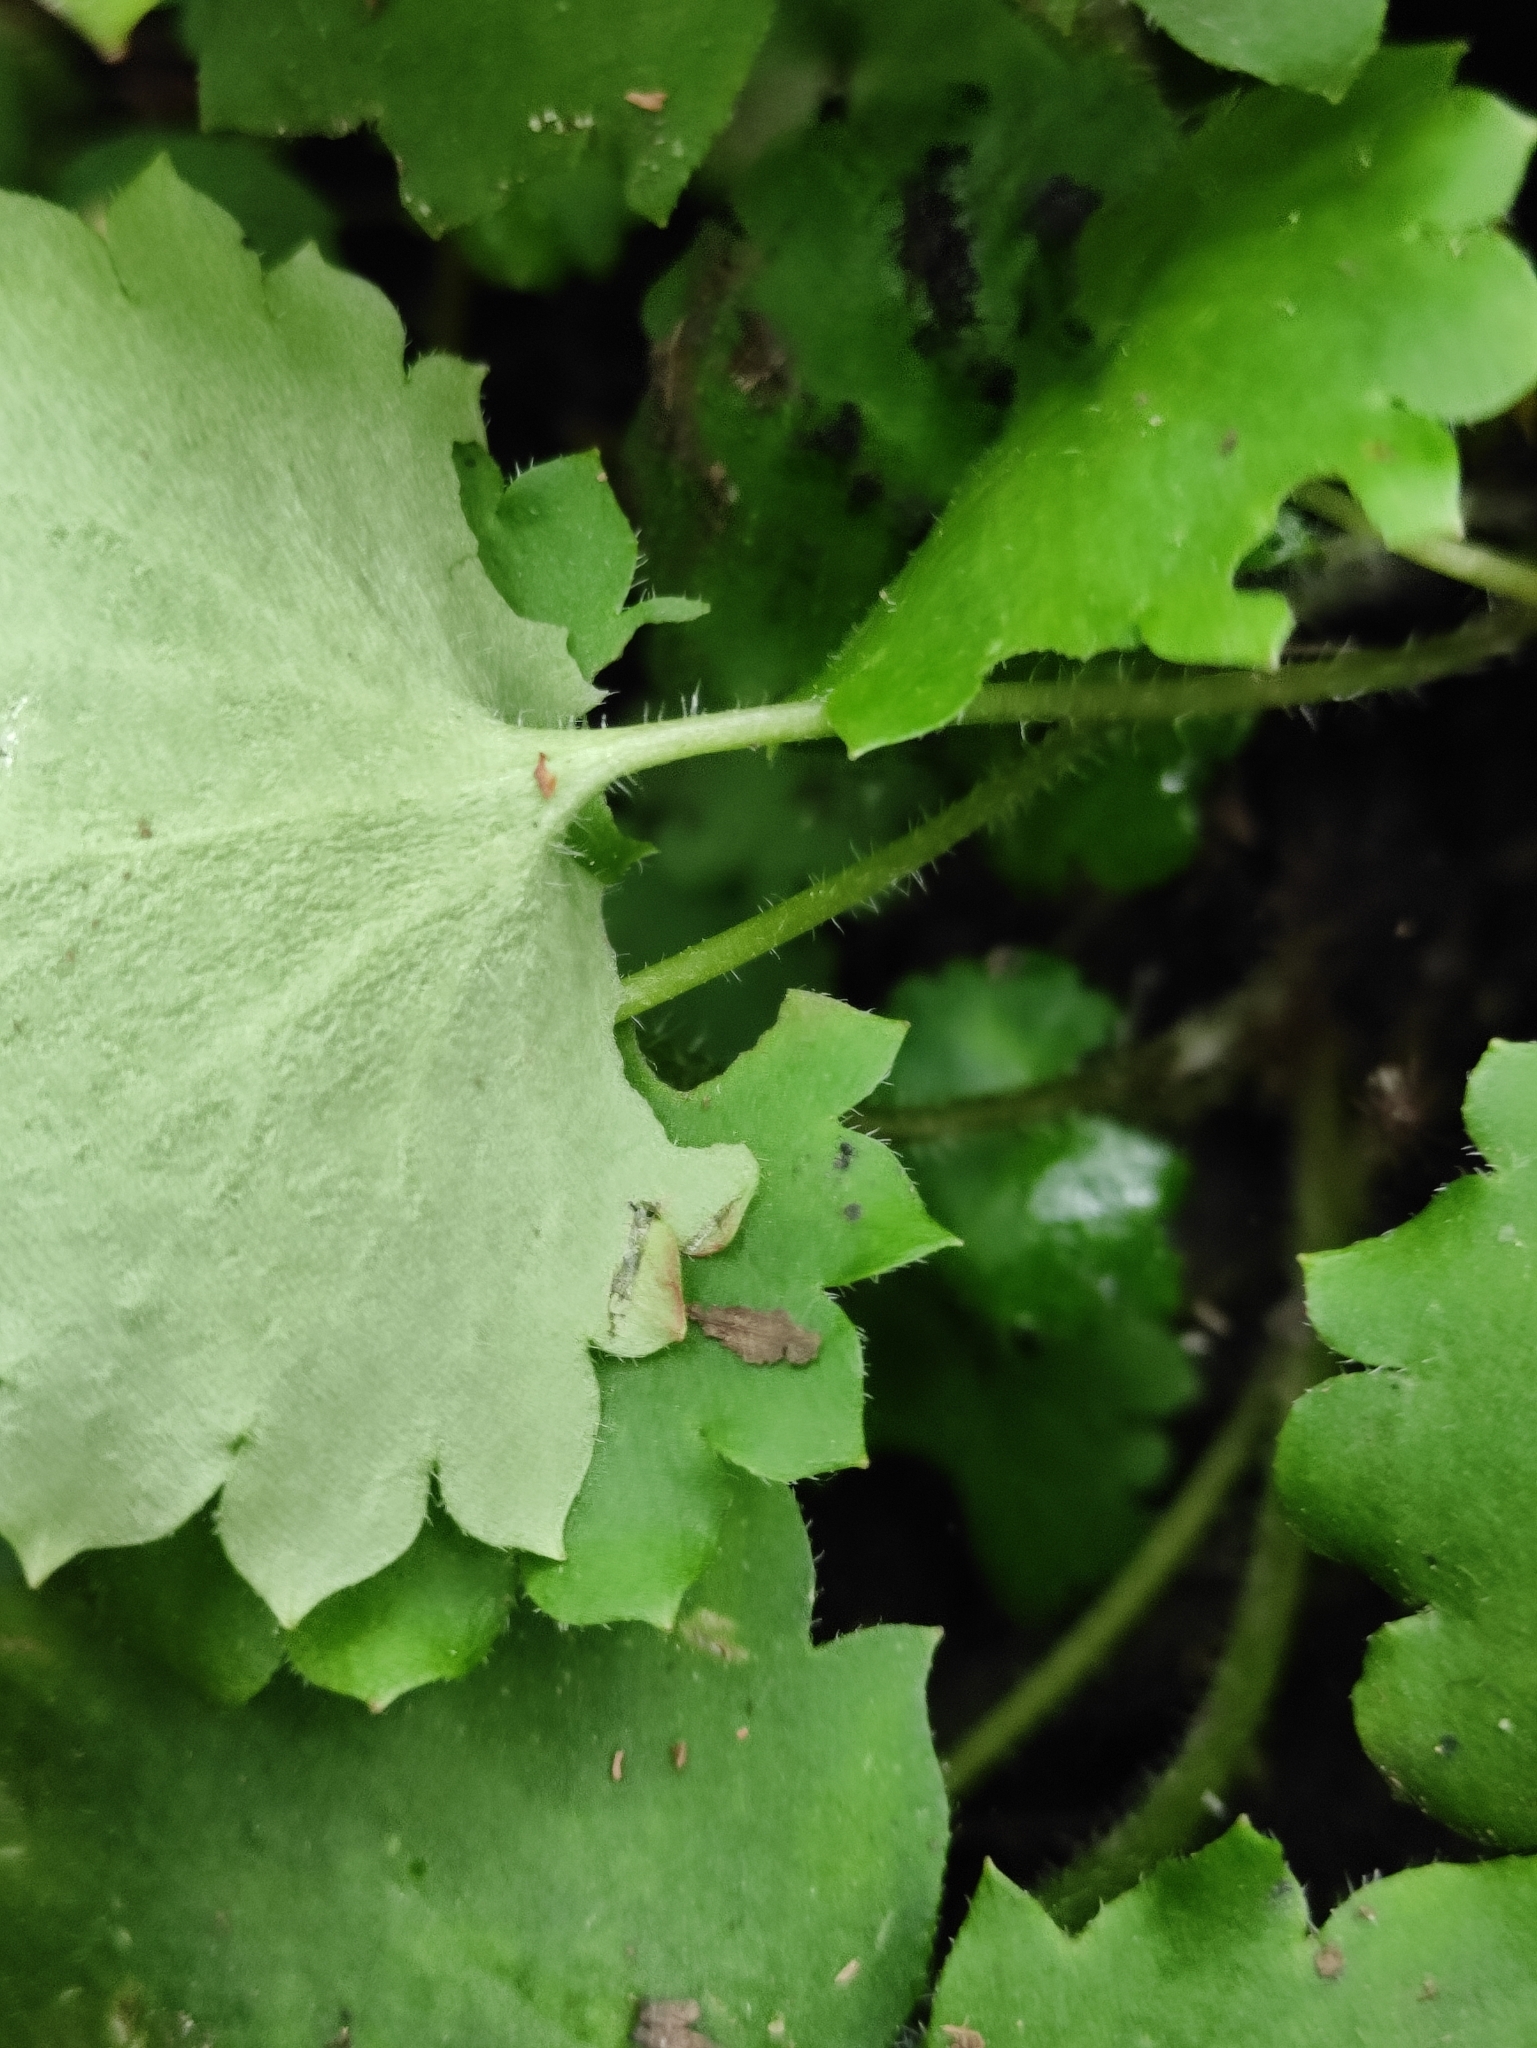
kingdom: Plantae
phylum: Tracheophyta
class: Magnoliopsida
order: Saxifragales
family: Saxifragaceae
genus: Micranthes
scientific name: Micranthes nelsoniana
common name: Nelson's saxifrage
